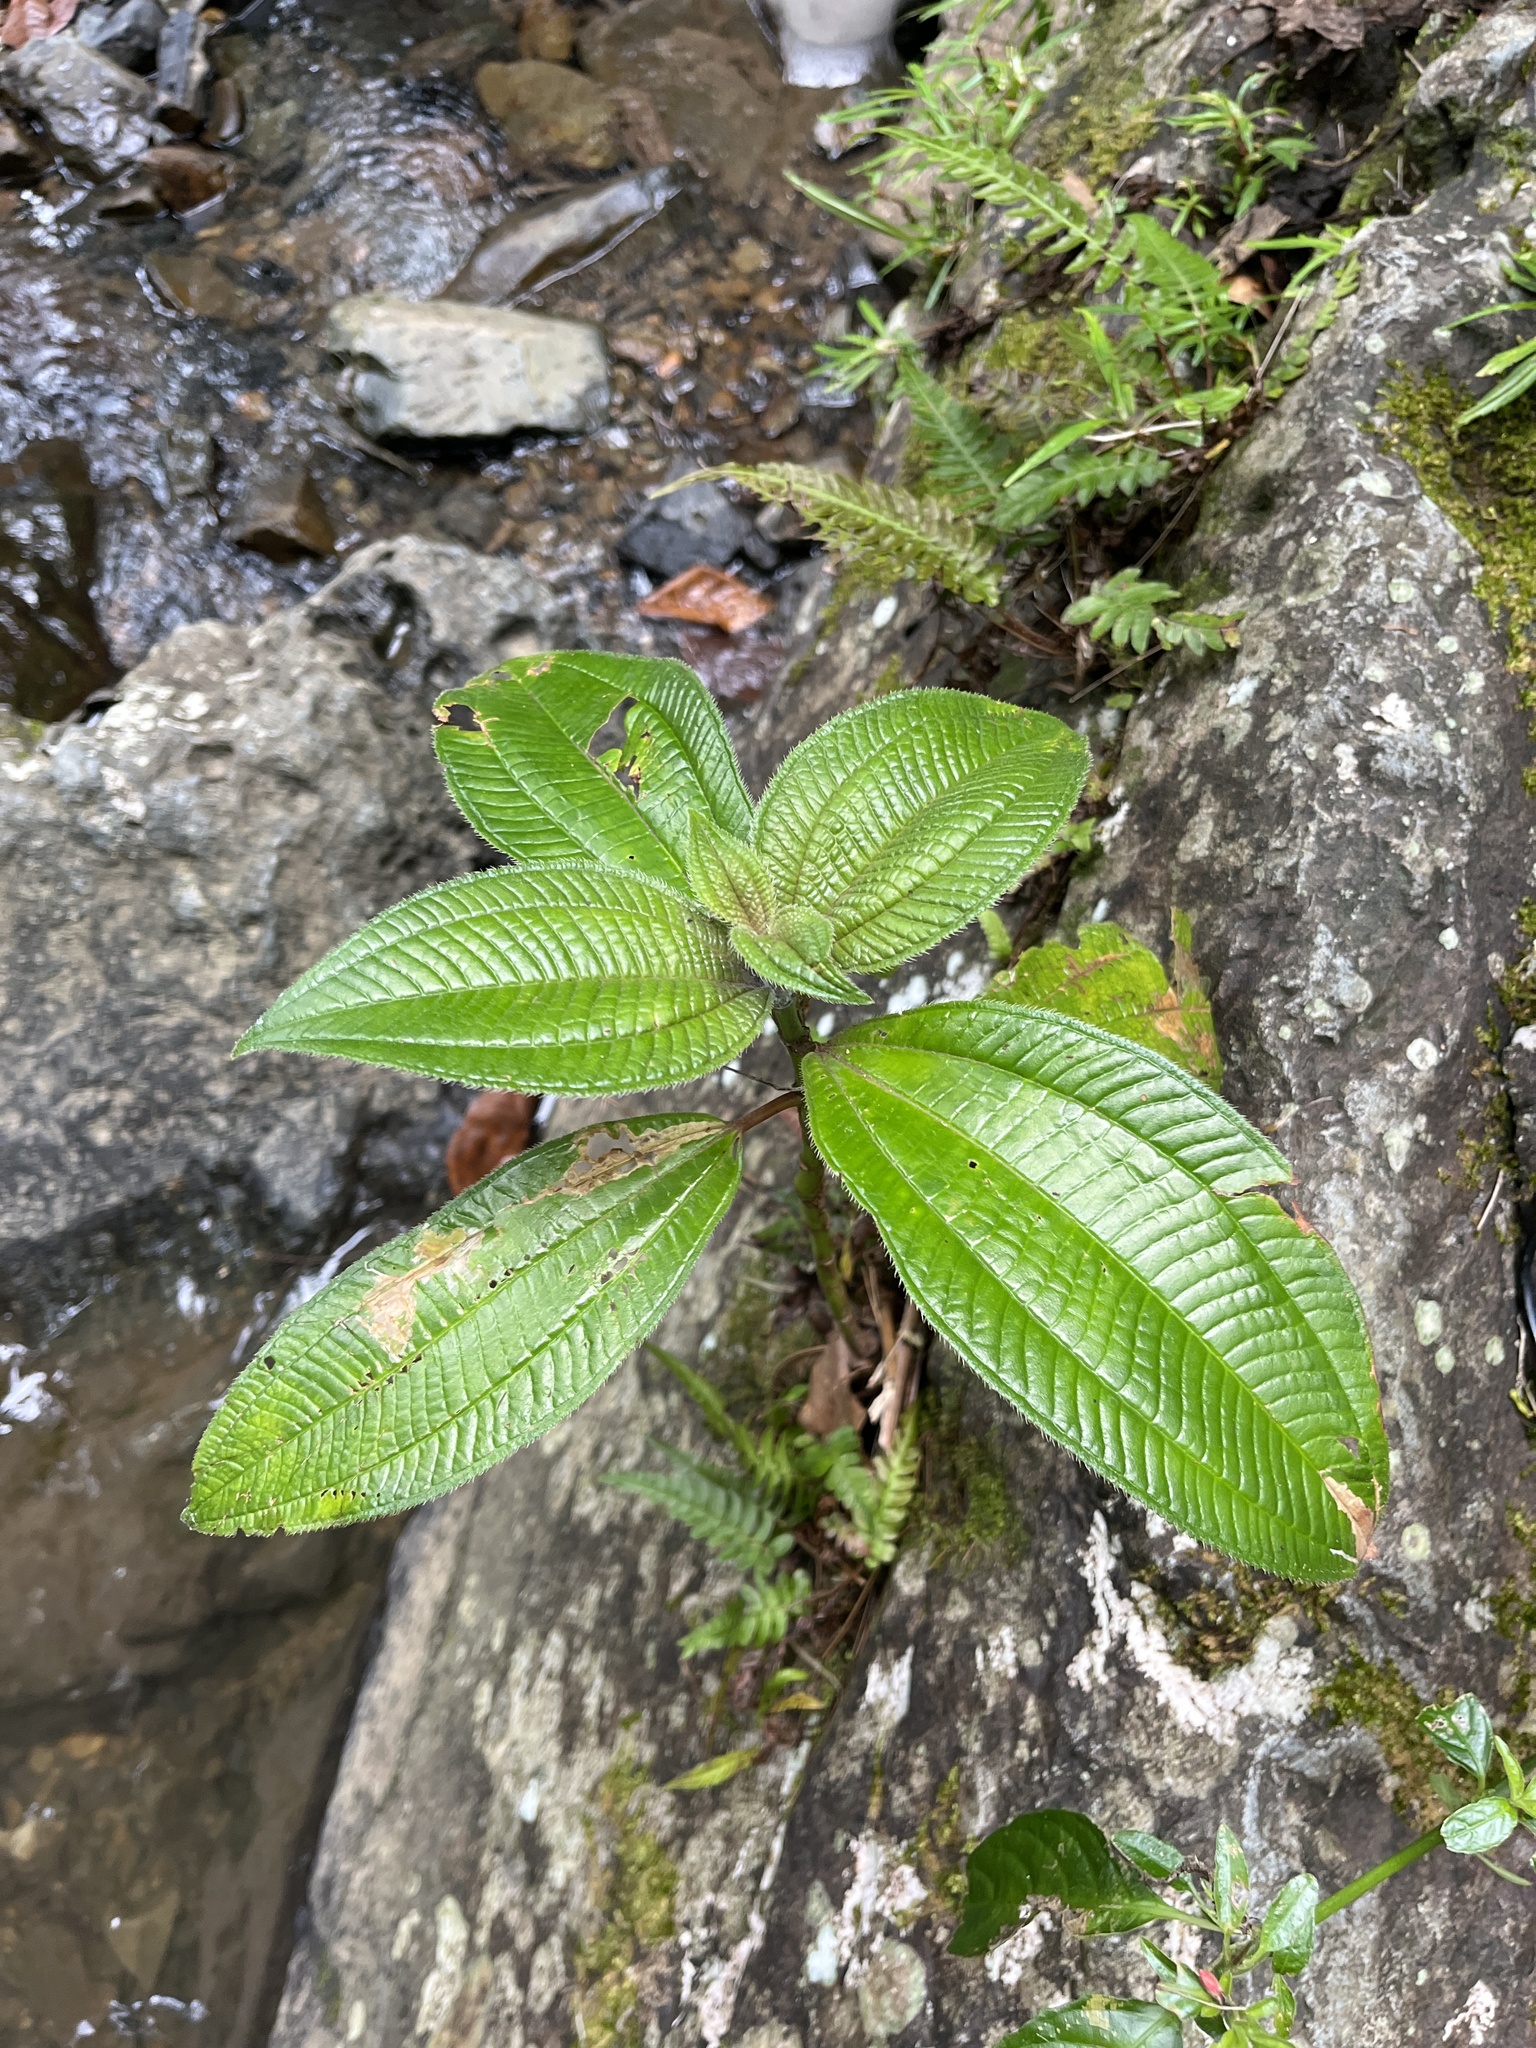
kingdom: Plantae
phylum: Tracheophyta
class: Magnoliopsida
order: Myrtales
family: Melastomataceae
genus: Miconia
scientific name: Miconia racemosa
